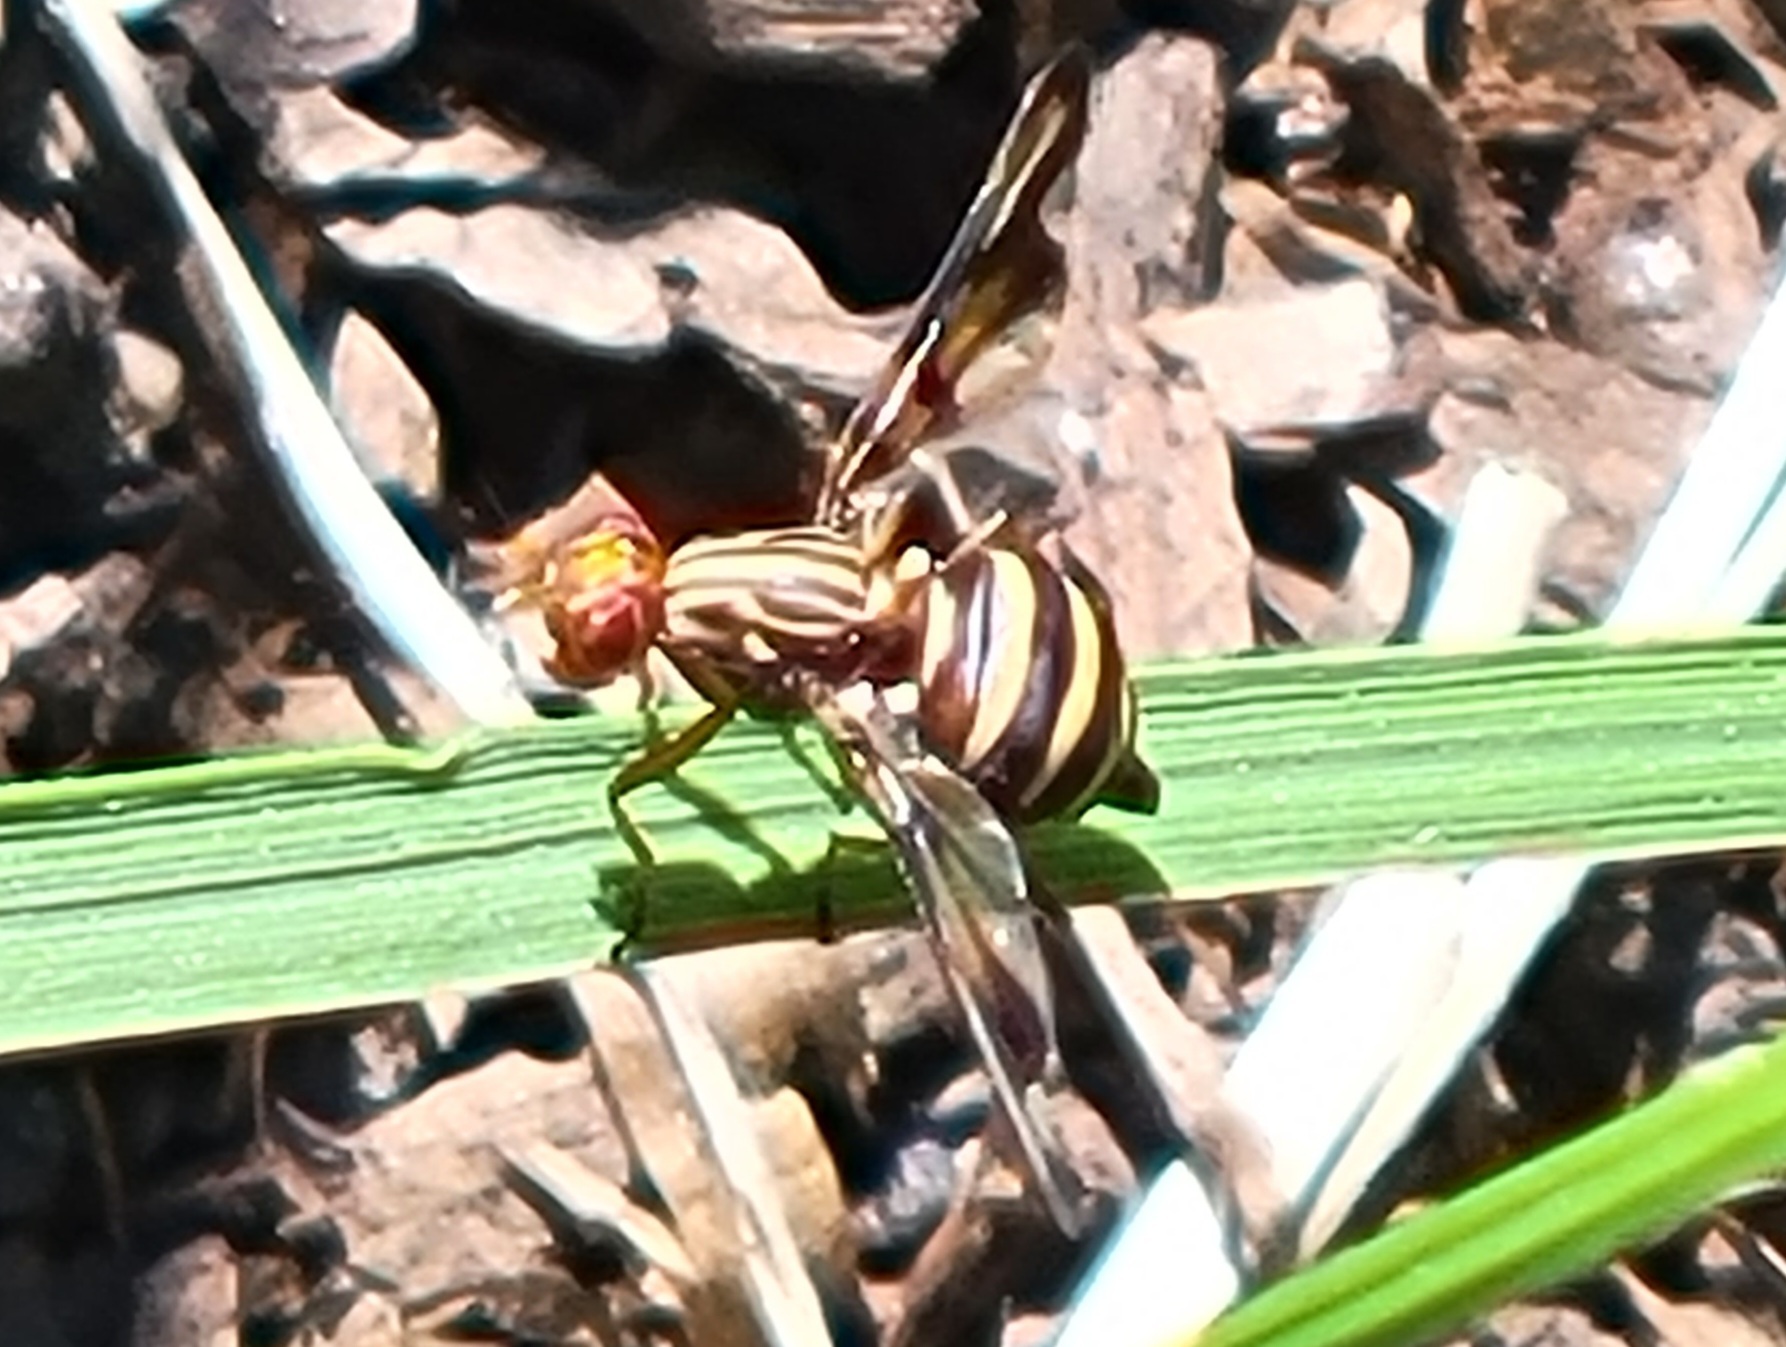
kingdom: Animalia
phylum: Arthropoda
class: Insecta
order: Diptera
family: Ulidiidae
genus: Idana
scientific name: Idana marginata
